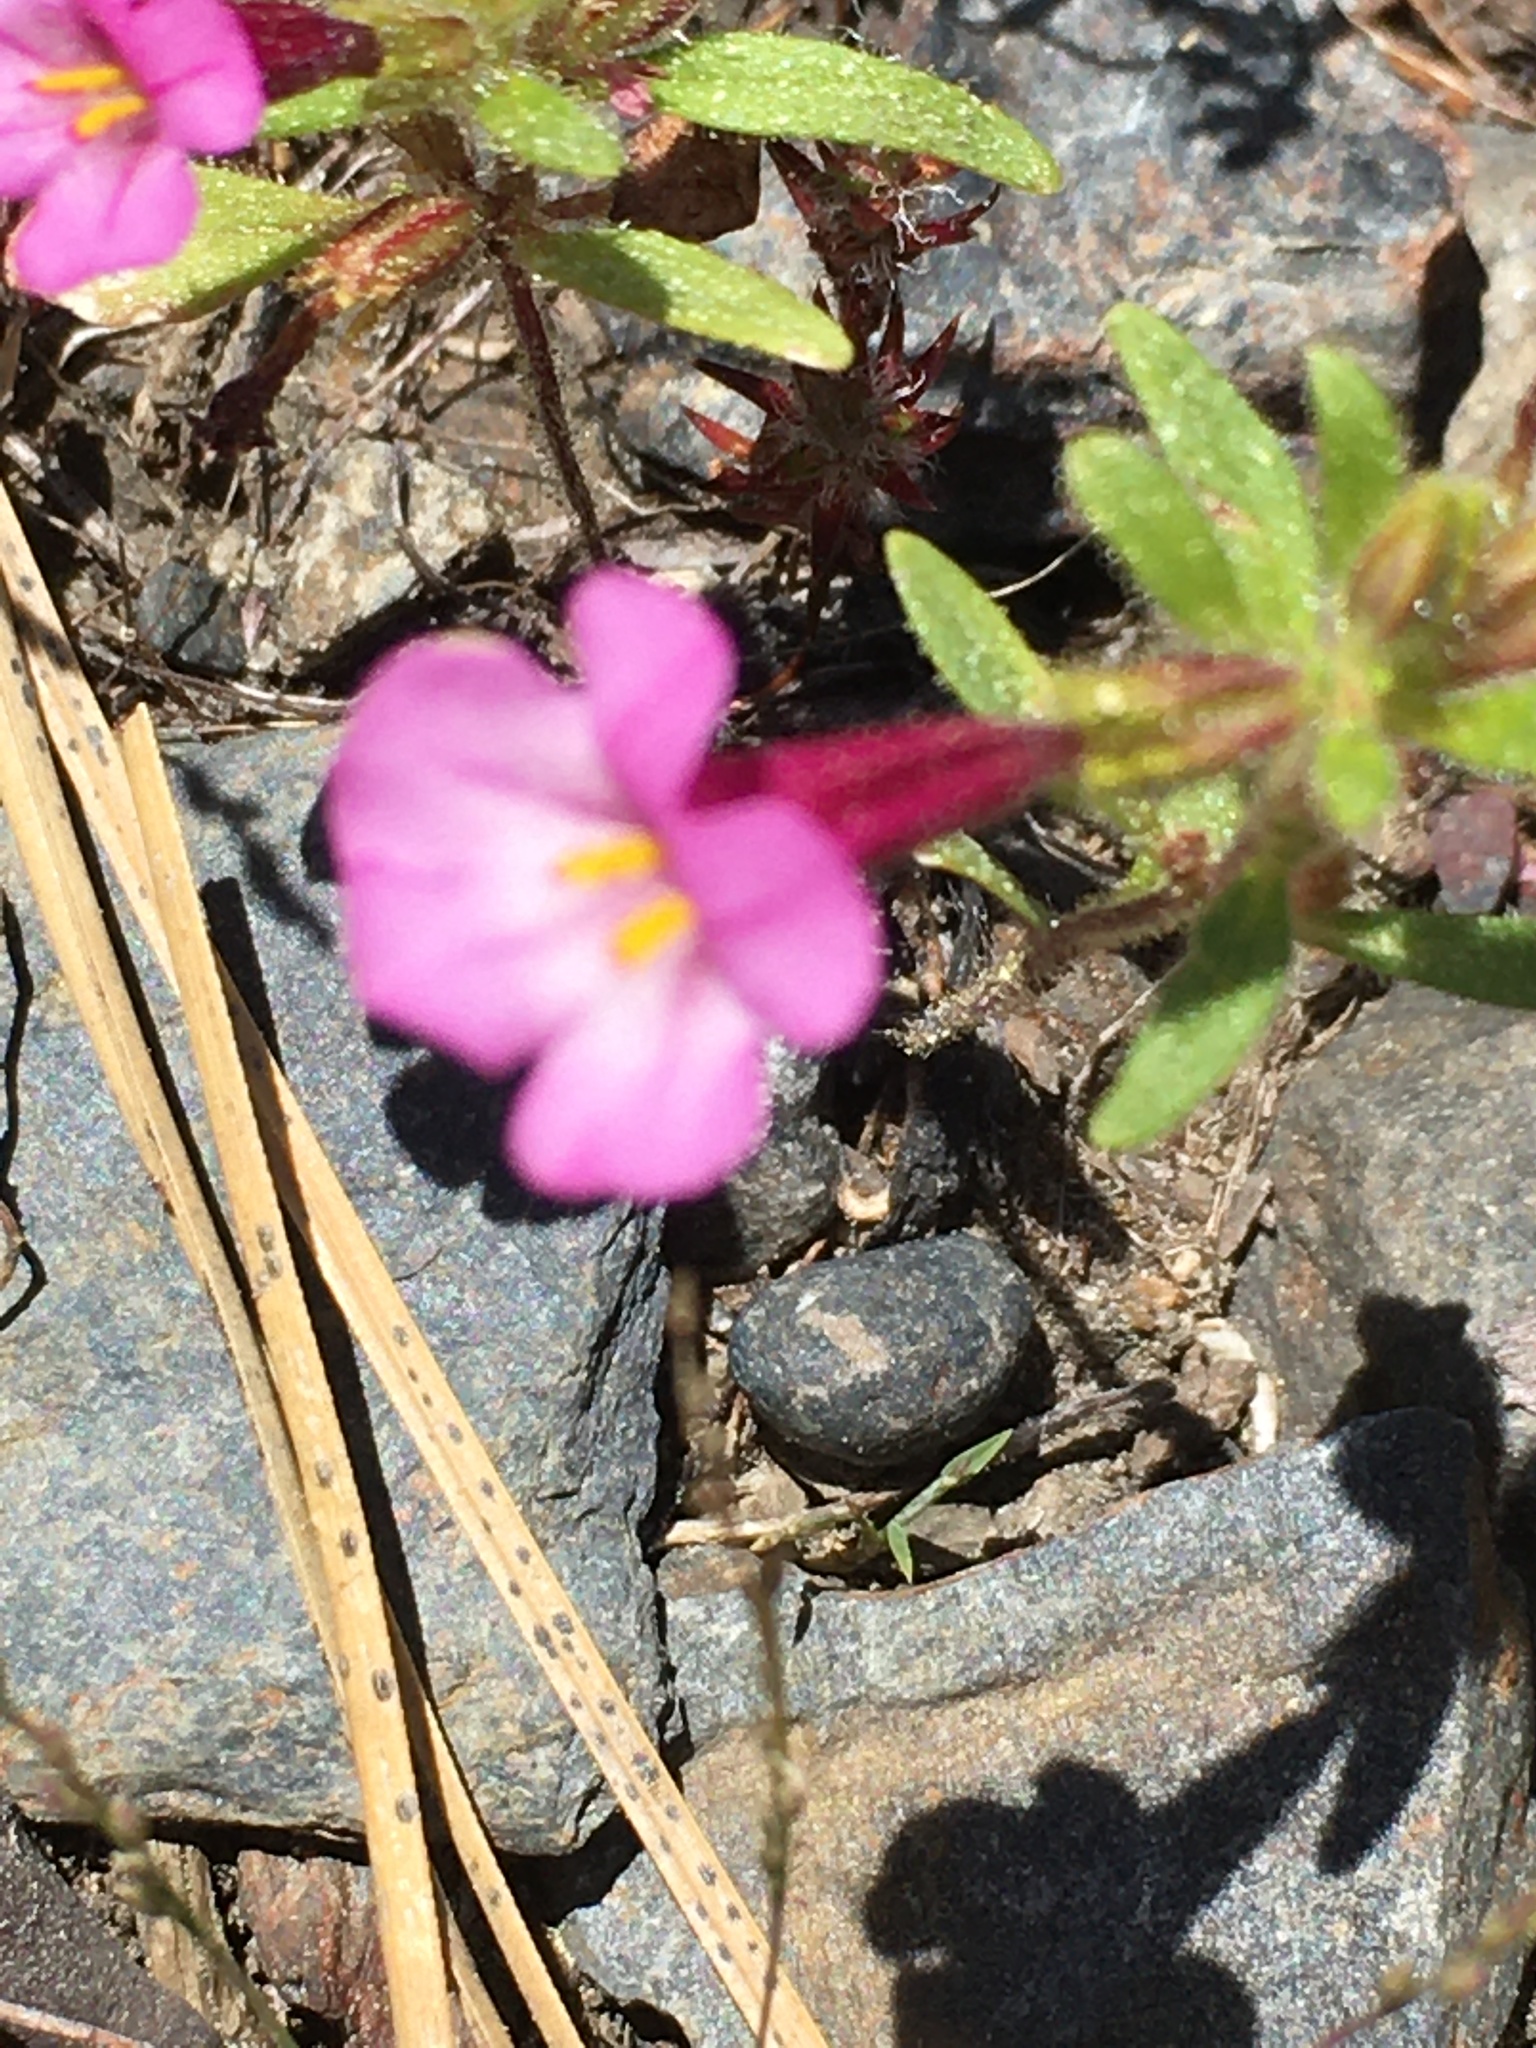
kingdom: Plantae
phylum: Tracheophyta
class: Magnoliopsida
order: Lamiales
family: Phrymaceae
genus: Diplacus
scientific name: Diplacus torreyi
